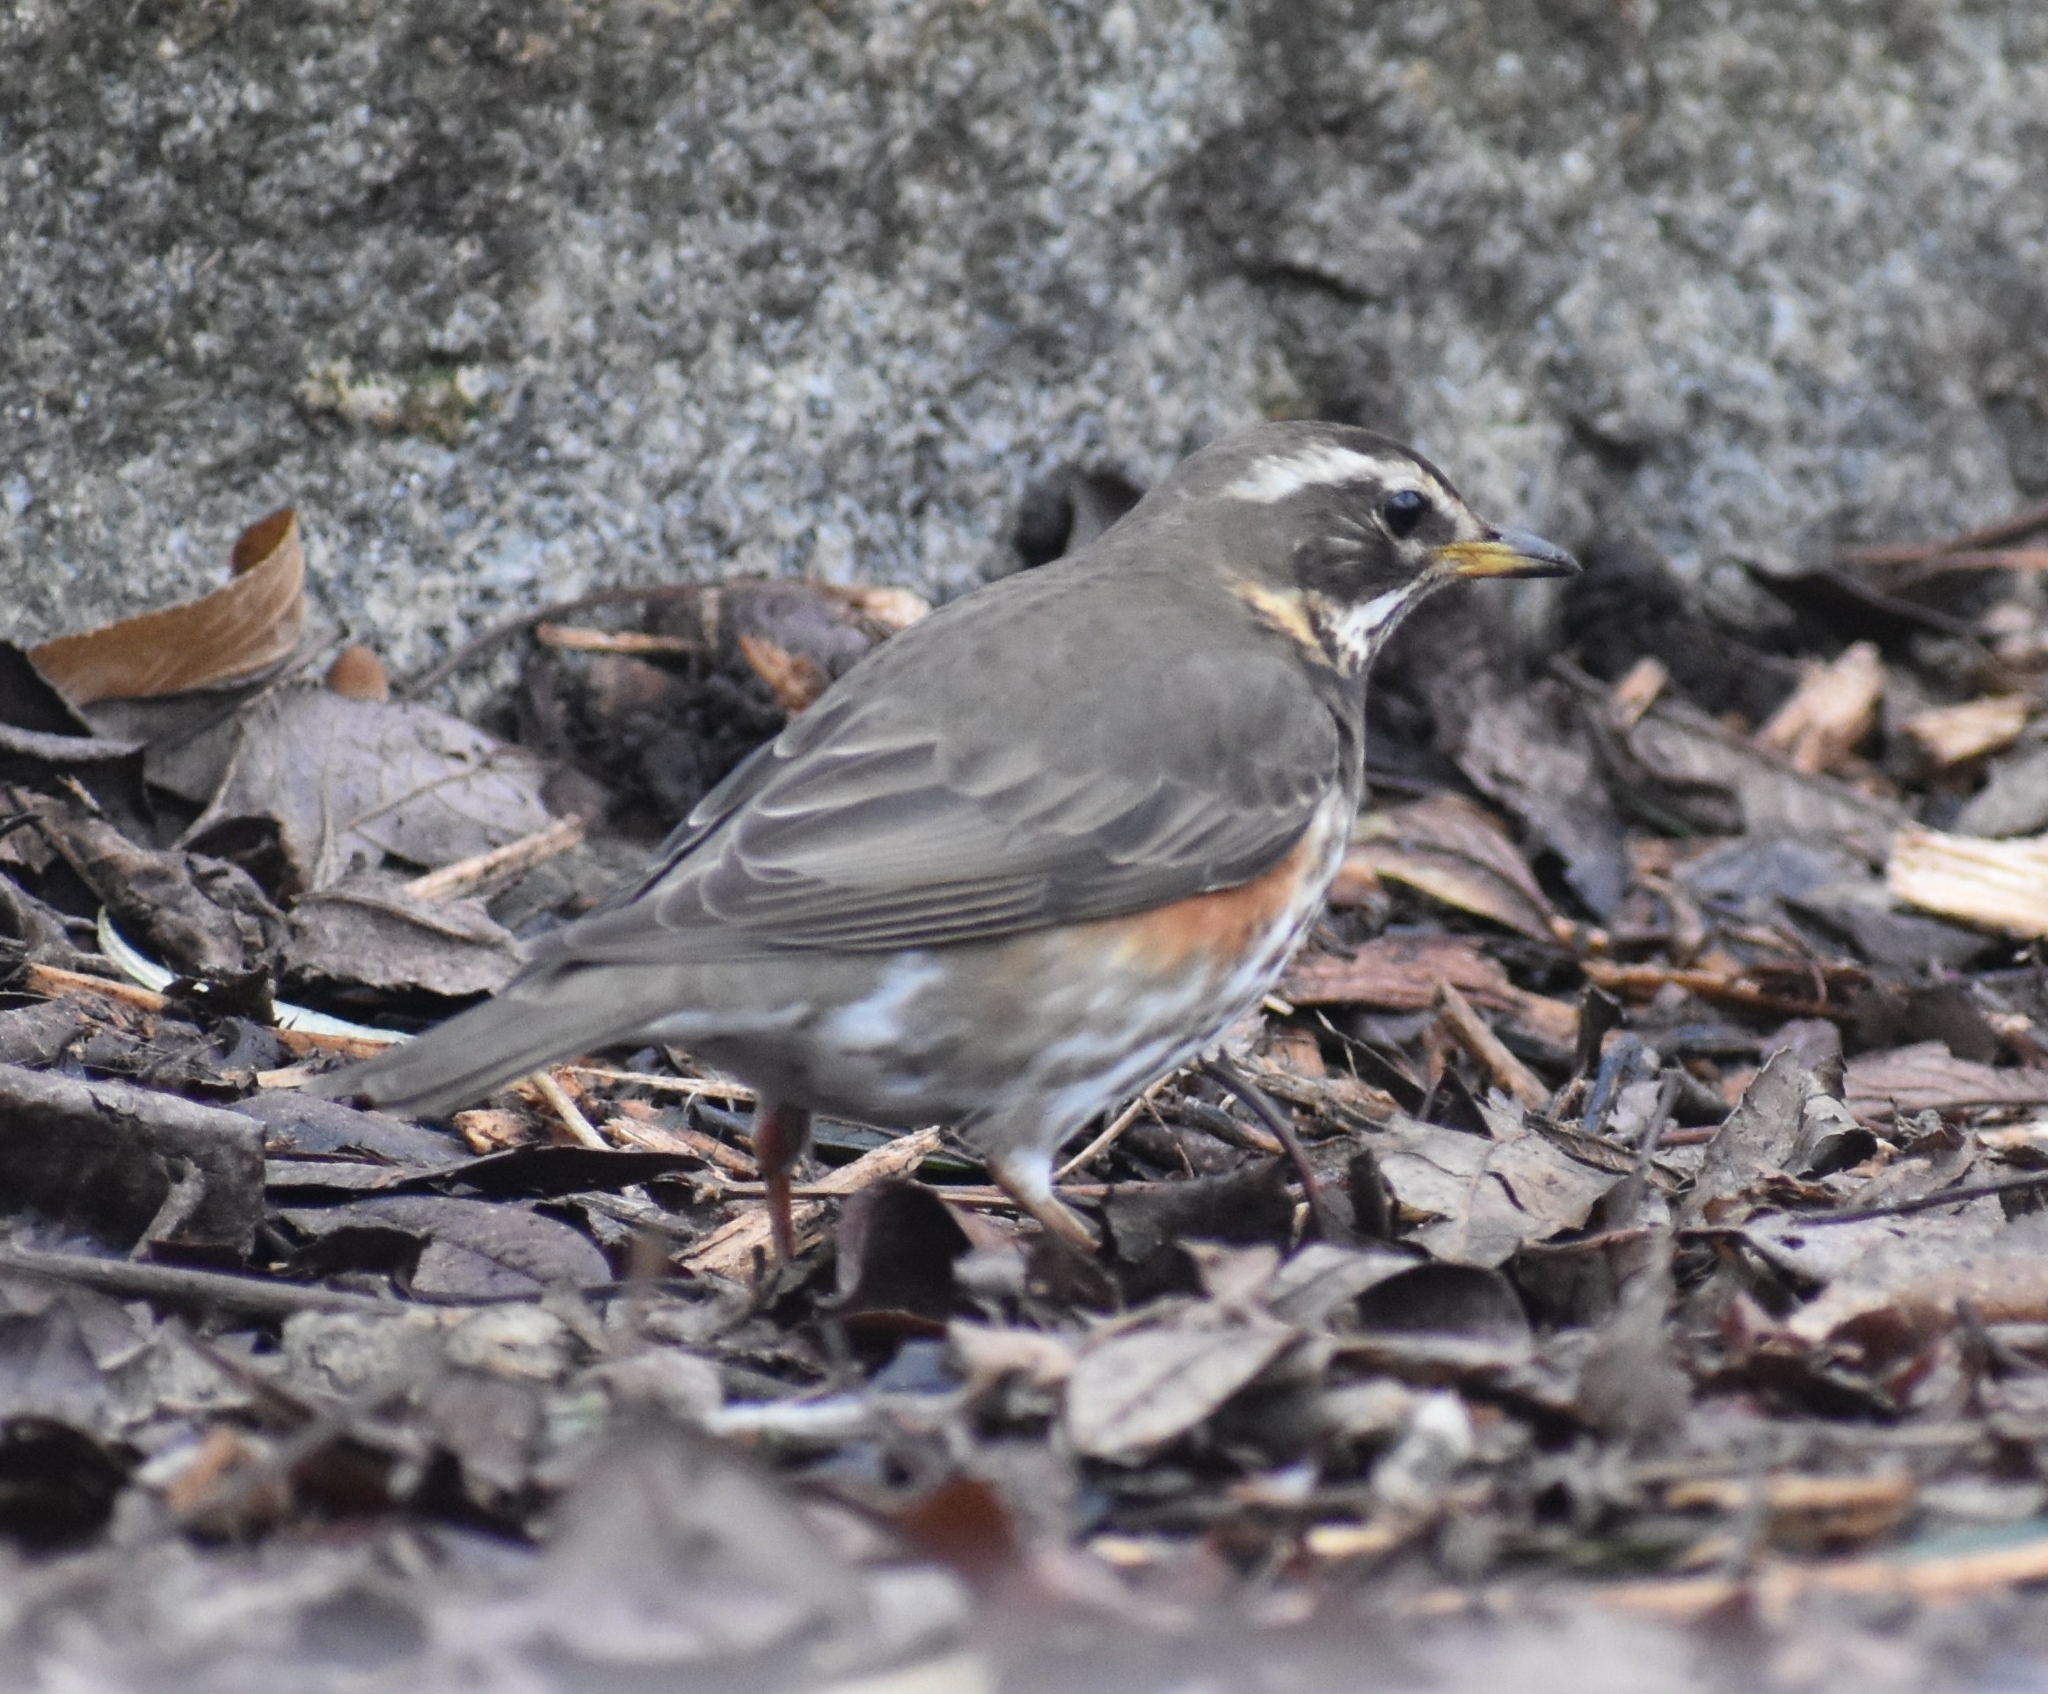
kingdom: Animalia
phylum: Chordata
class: Aves
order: Passeriformes
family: Turdidae
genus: Turdus
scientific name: Turdus iliacus
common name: Redwing
